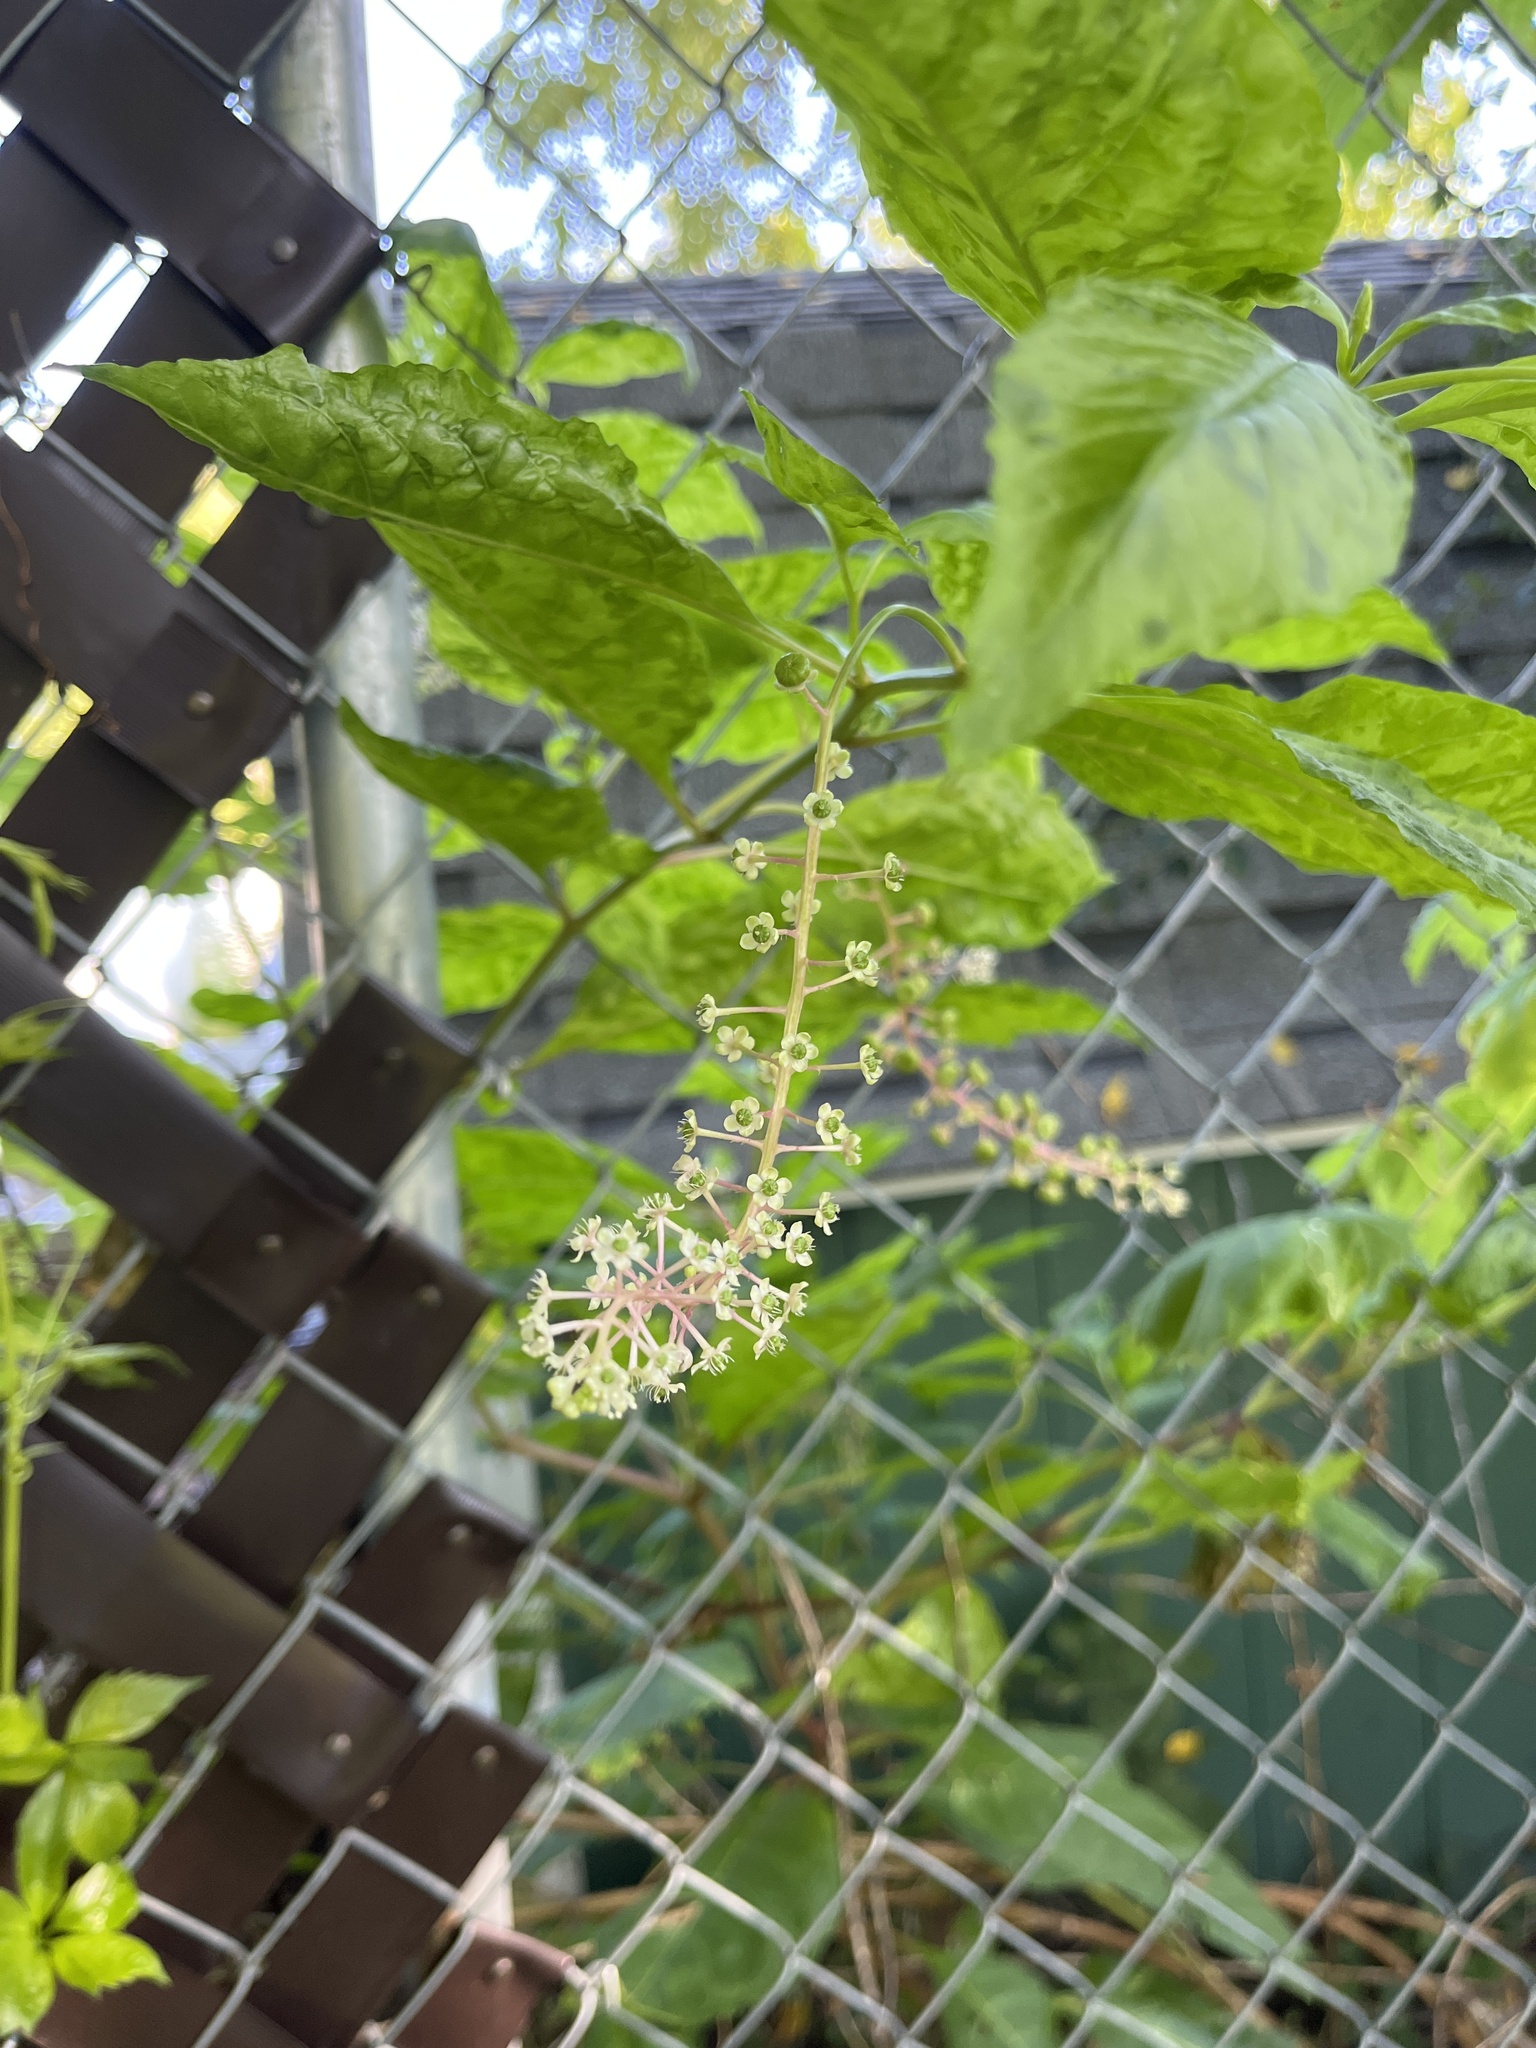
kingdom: Plantae
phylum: Tracheophyta
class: Magnoliopsida
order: Caryophyllales
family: Phytolaccaceae
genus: Phytolacca
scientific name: Phytolacca americana
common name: American pokeweed
